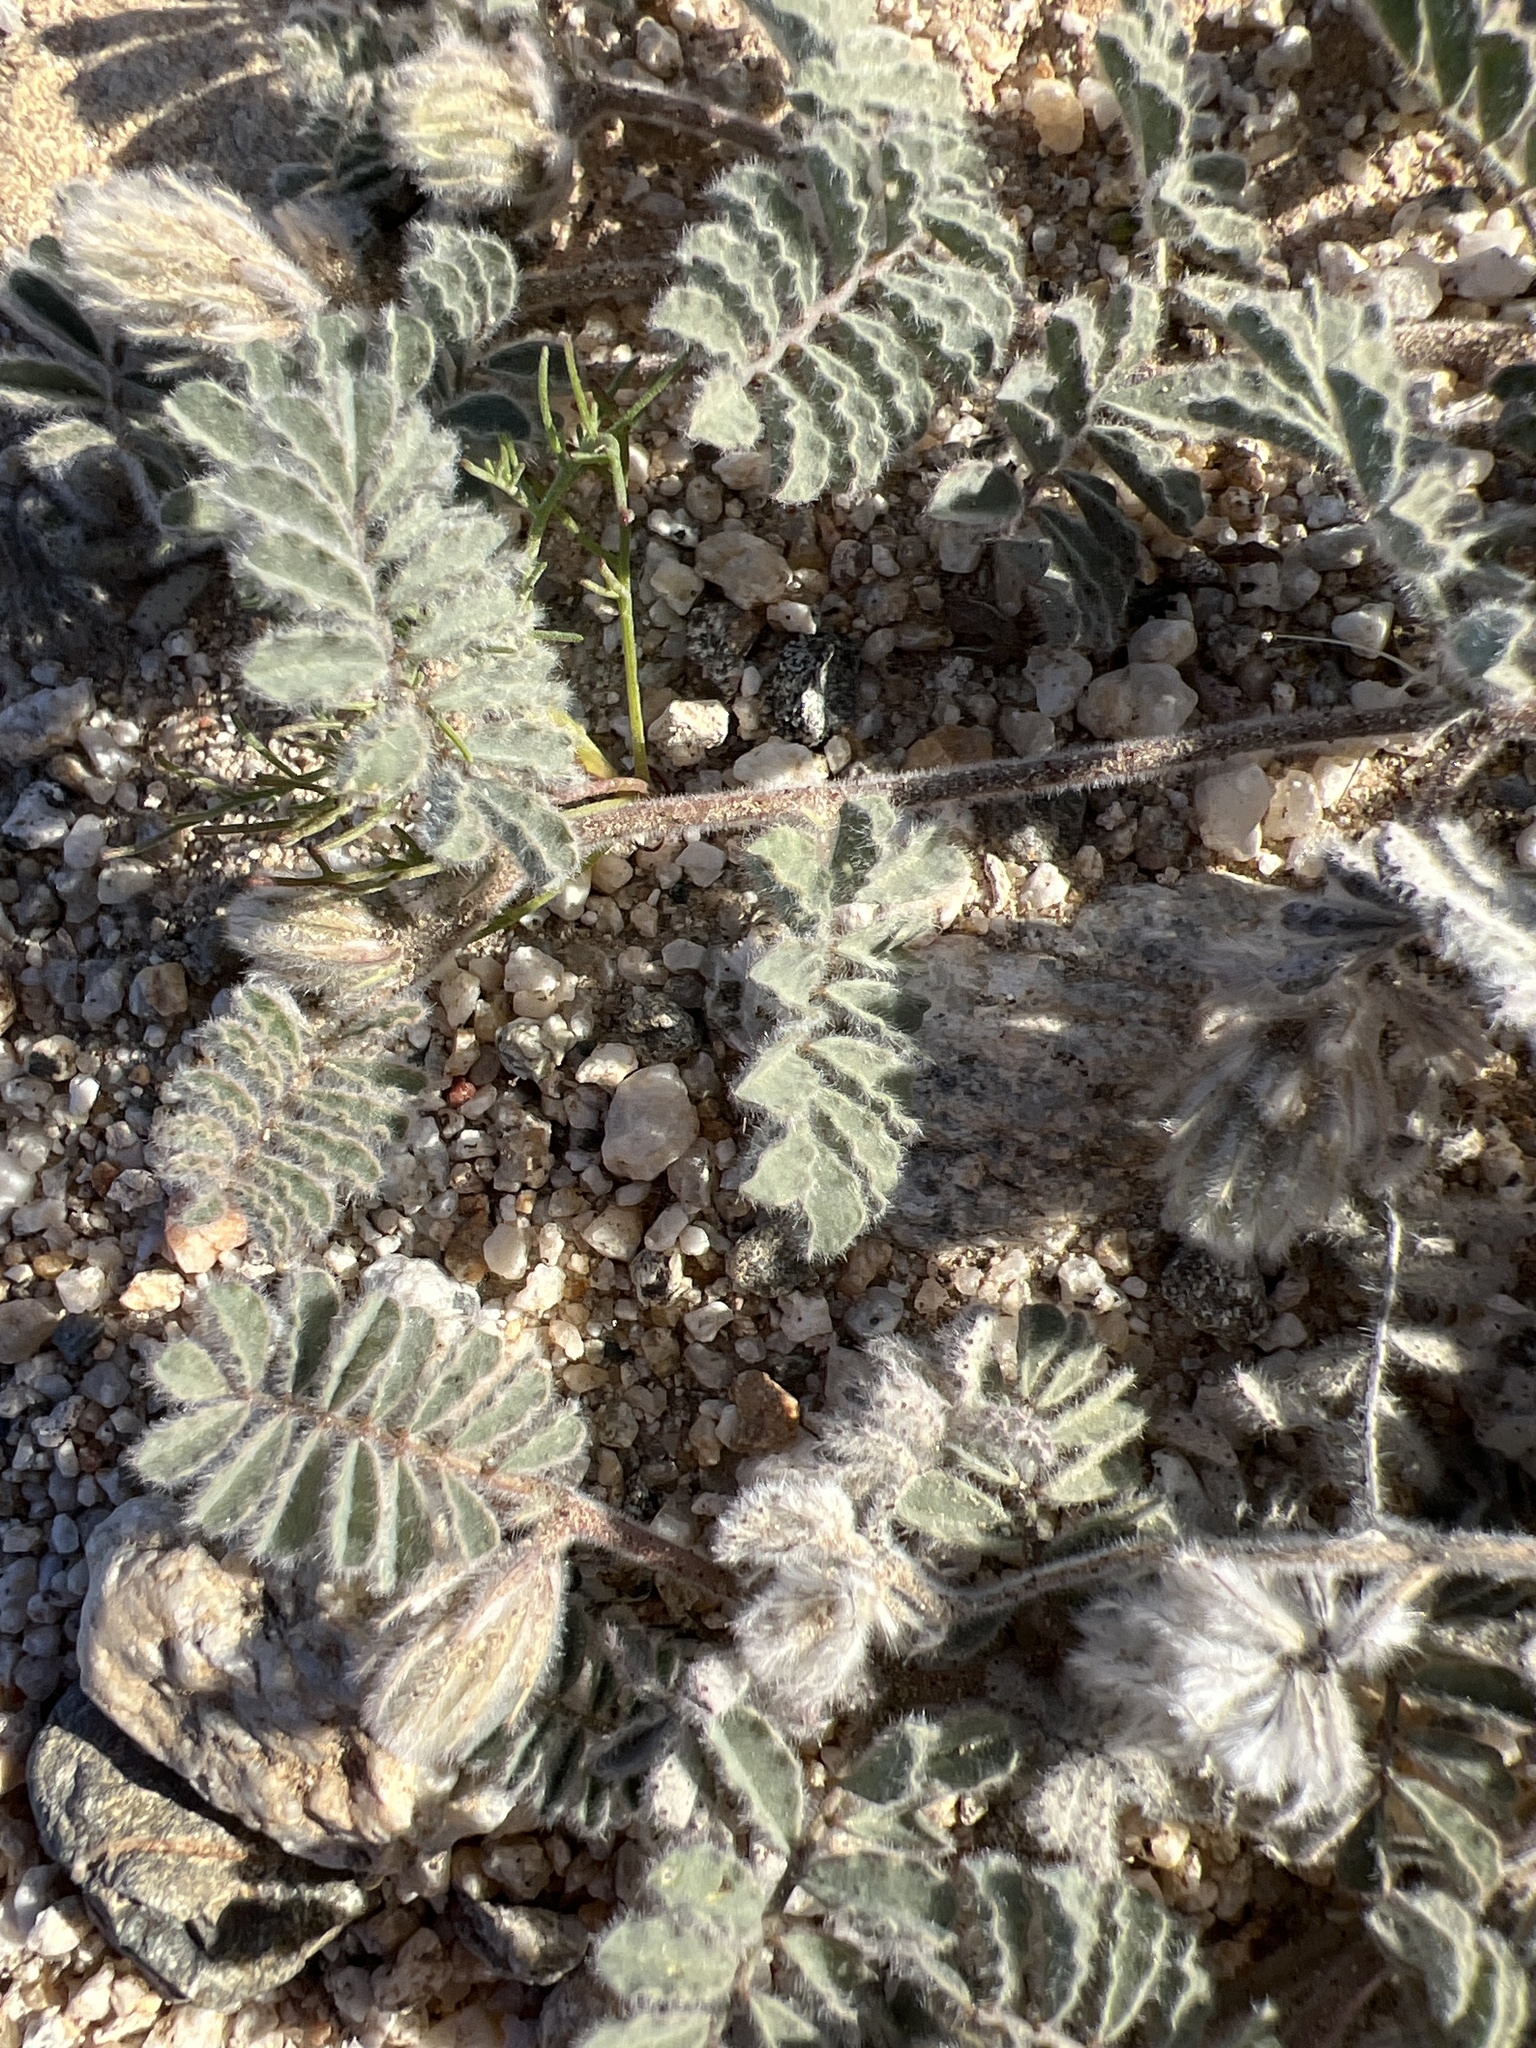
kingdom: Plantae
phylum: Tracheophyta
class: Magnoliopsida
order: Fabales
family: Fabaceae
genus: Dalea
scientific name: Dalea mollissima
